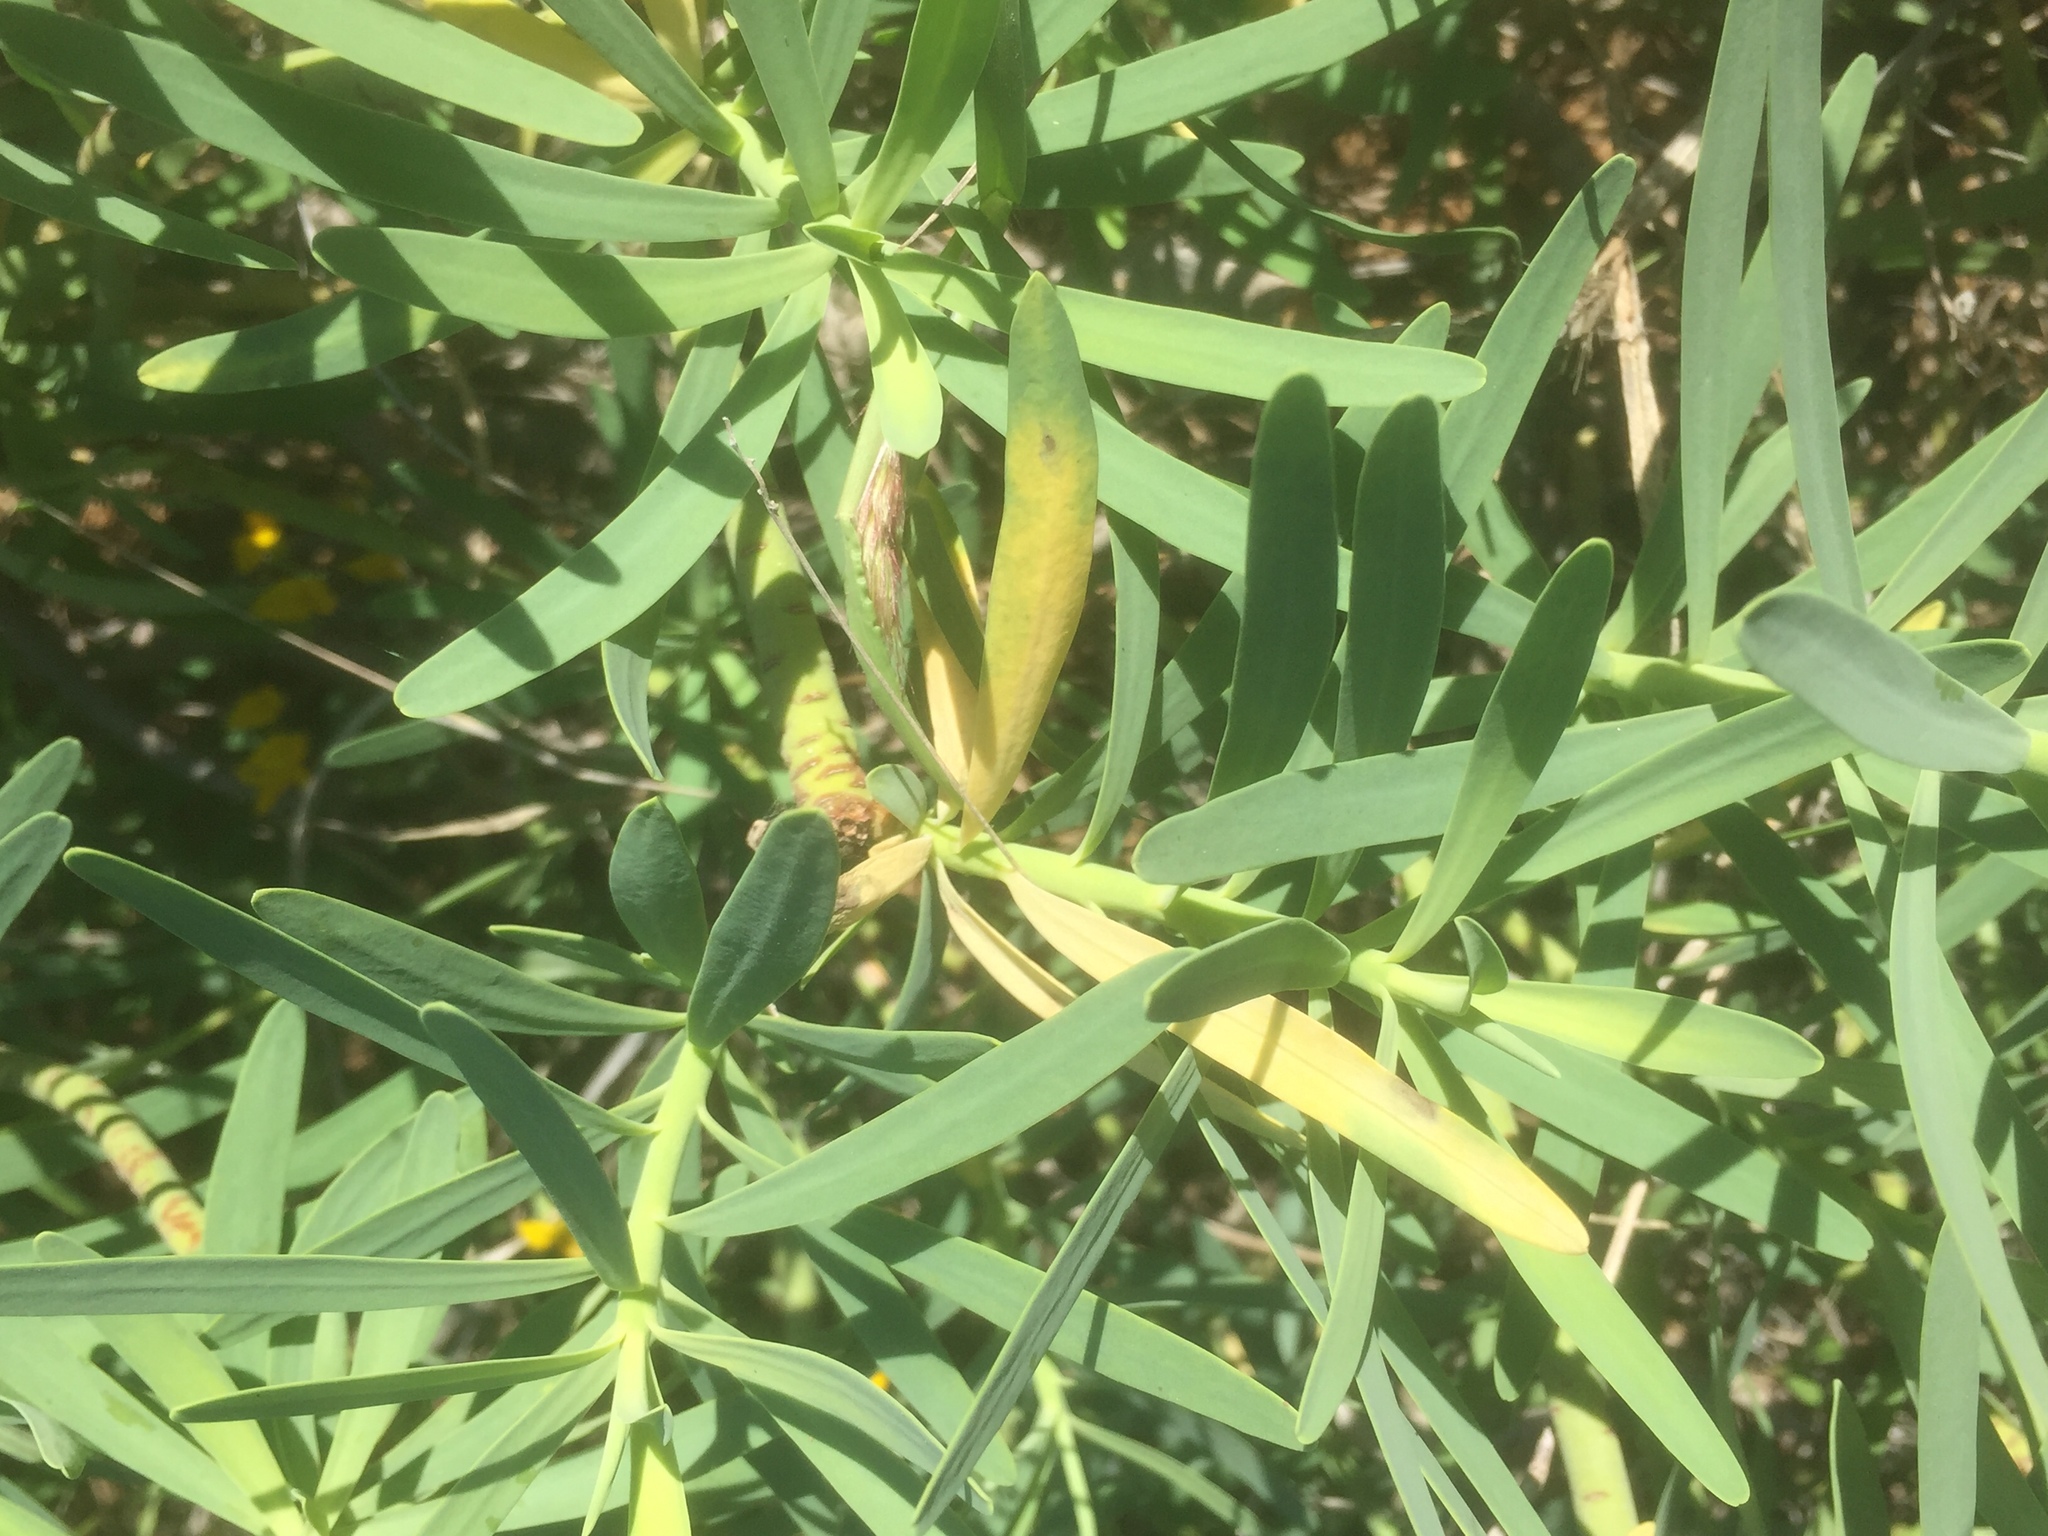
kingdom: Plantae
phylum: Tracheophyta
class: Magnoliopsida
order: Malpighiales
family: Euphorbiaceae
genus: Euphorbia
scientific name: Euphorbia regis-jubae
